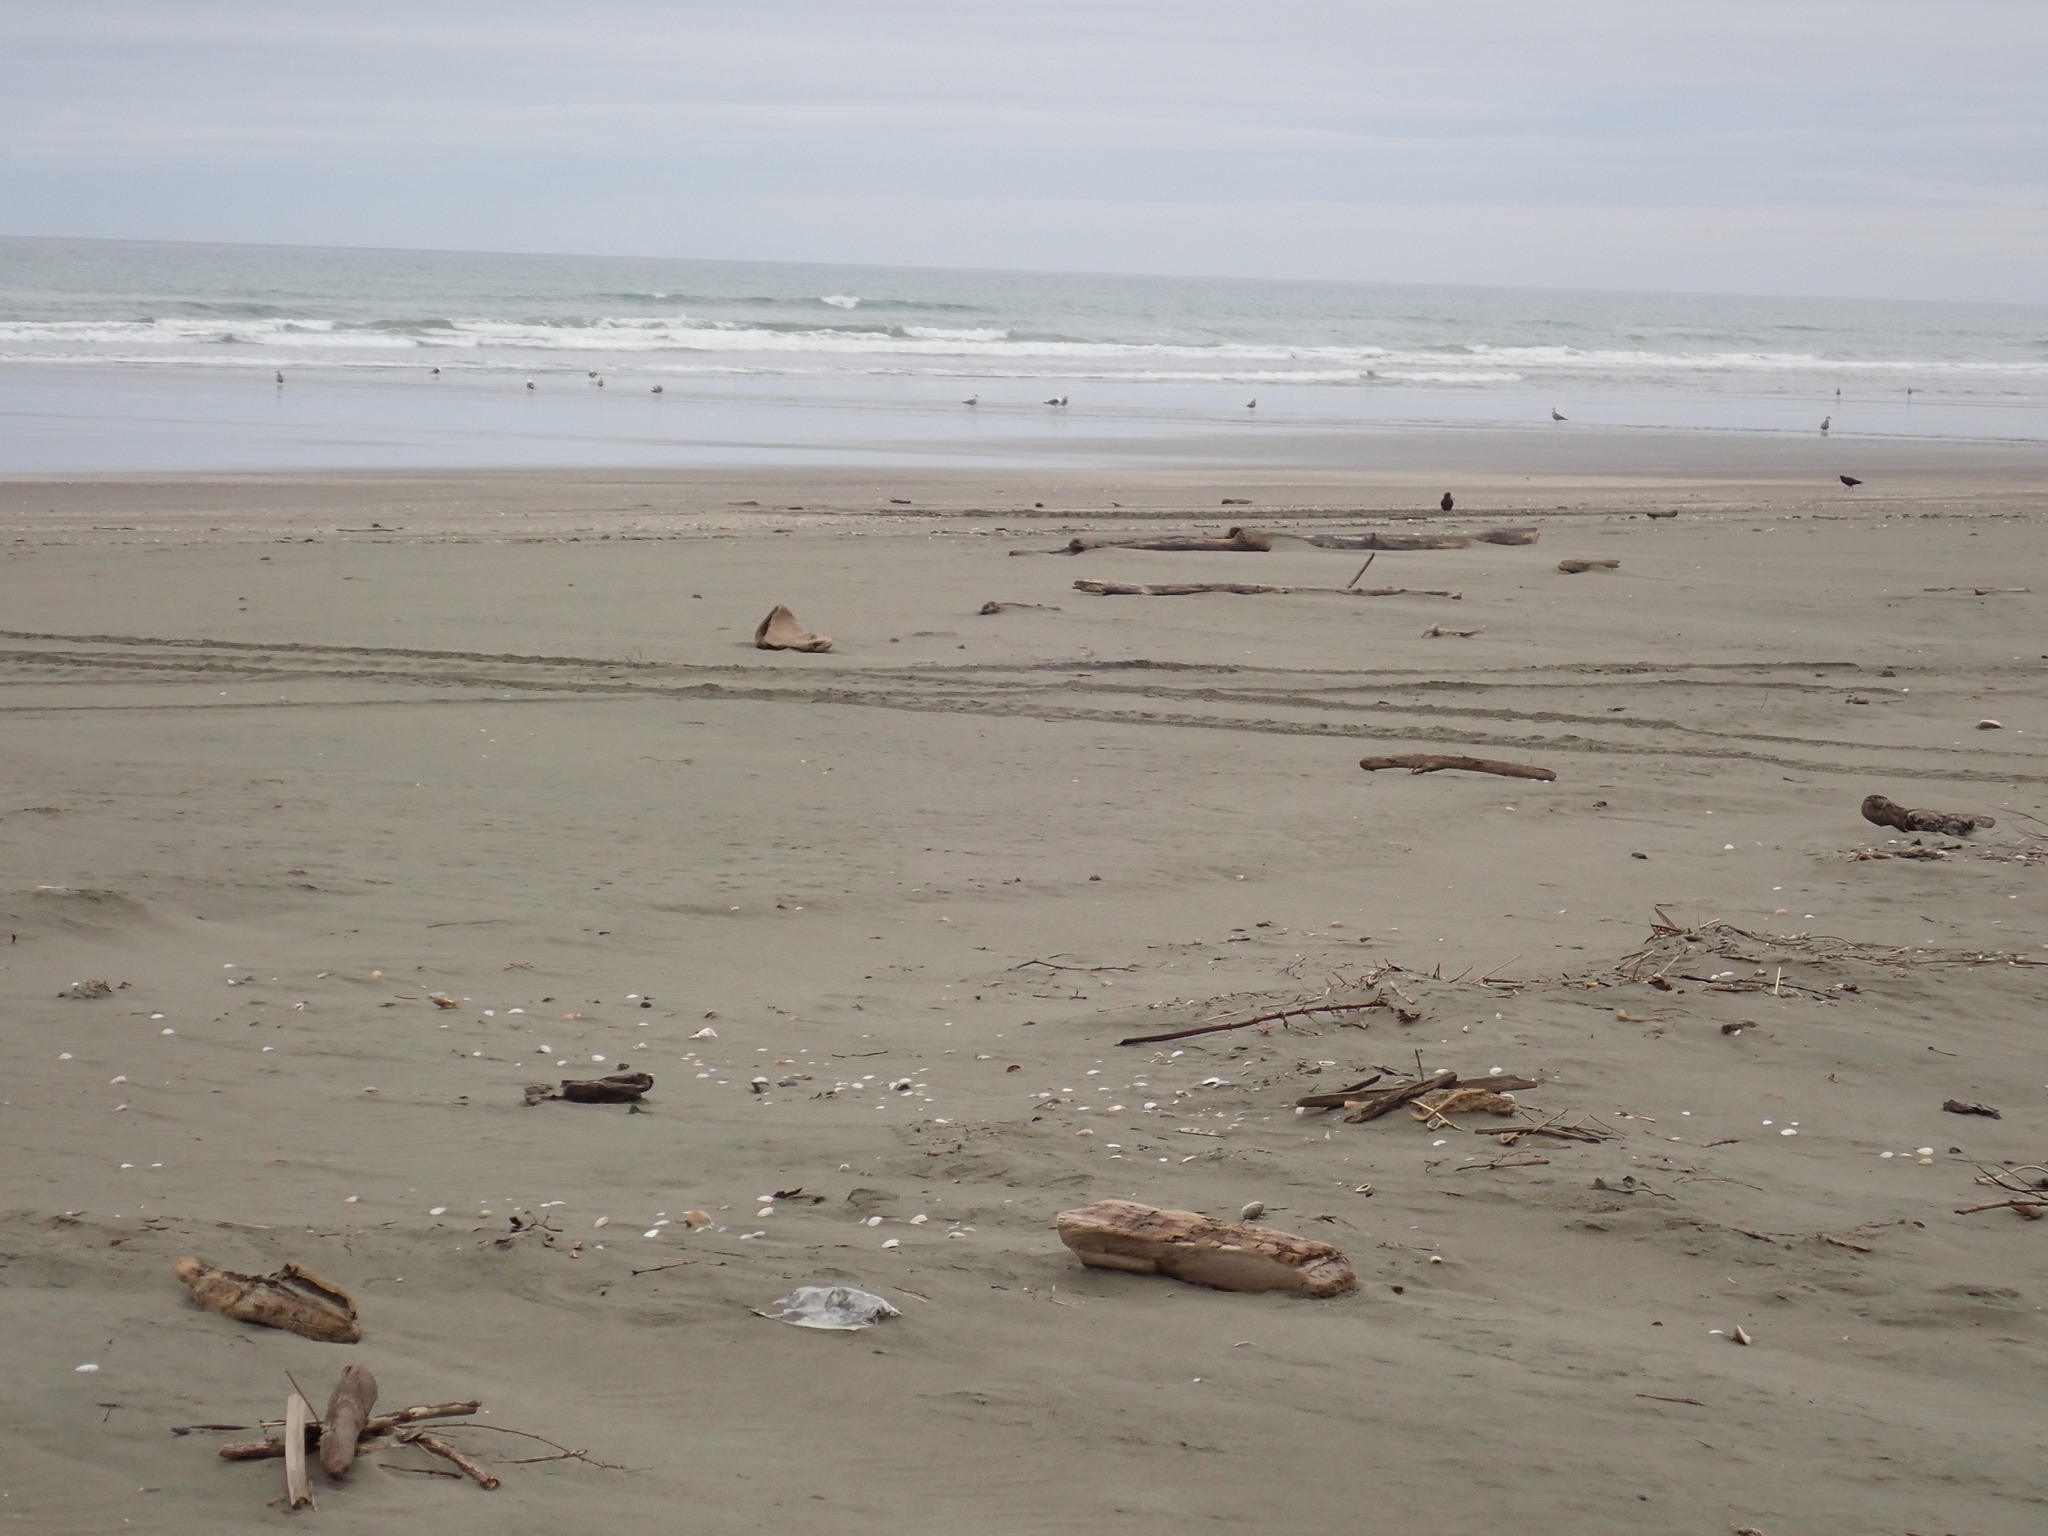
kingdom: Animalia
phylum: Chordata
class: Aves
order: Charadriiformes
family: Haematopodidae
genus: Haematopus
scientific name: Haematopus unicolor
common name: Variable oystercatcher
